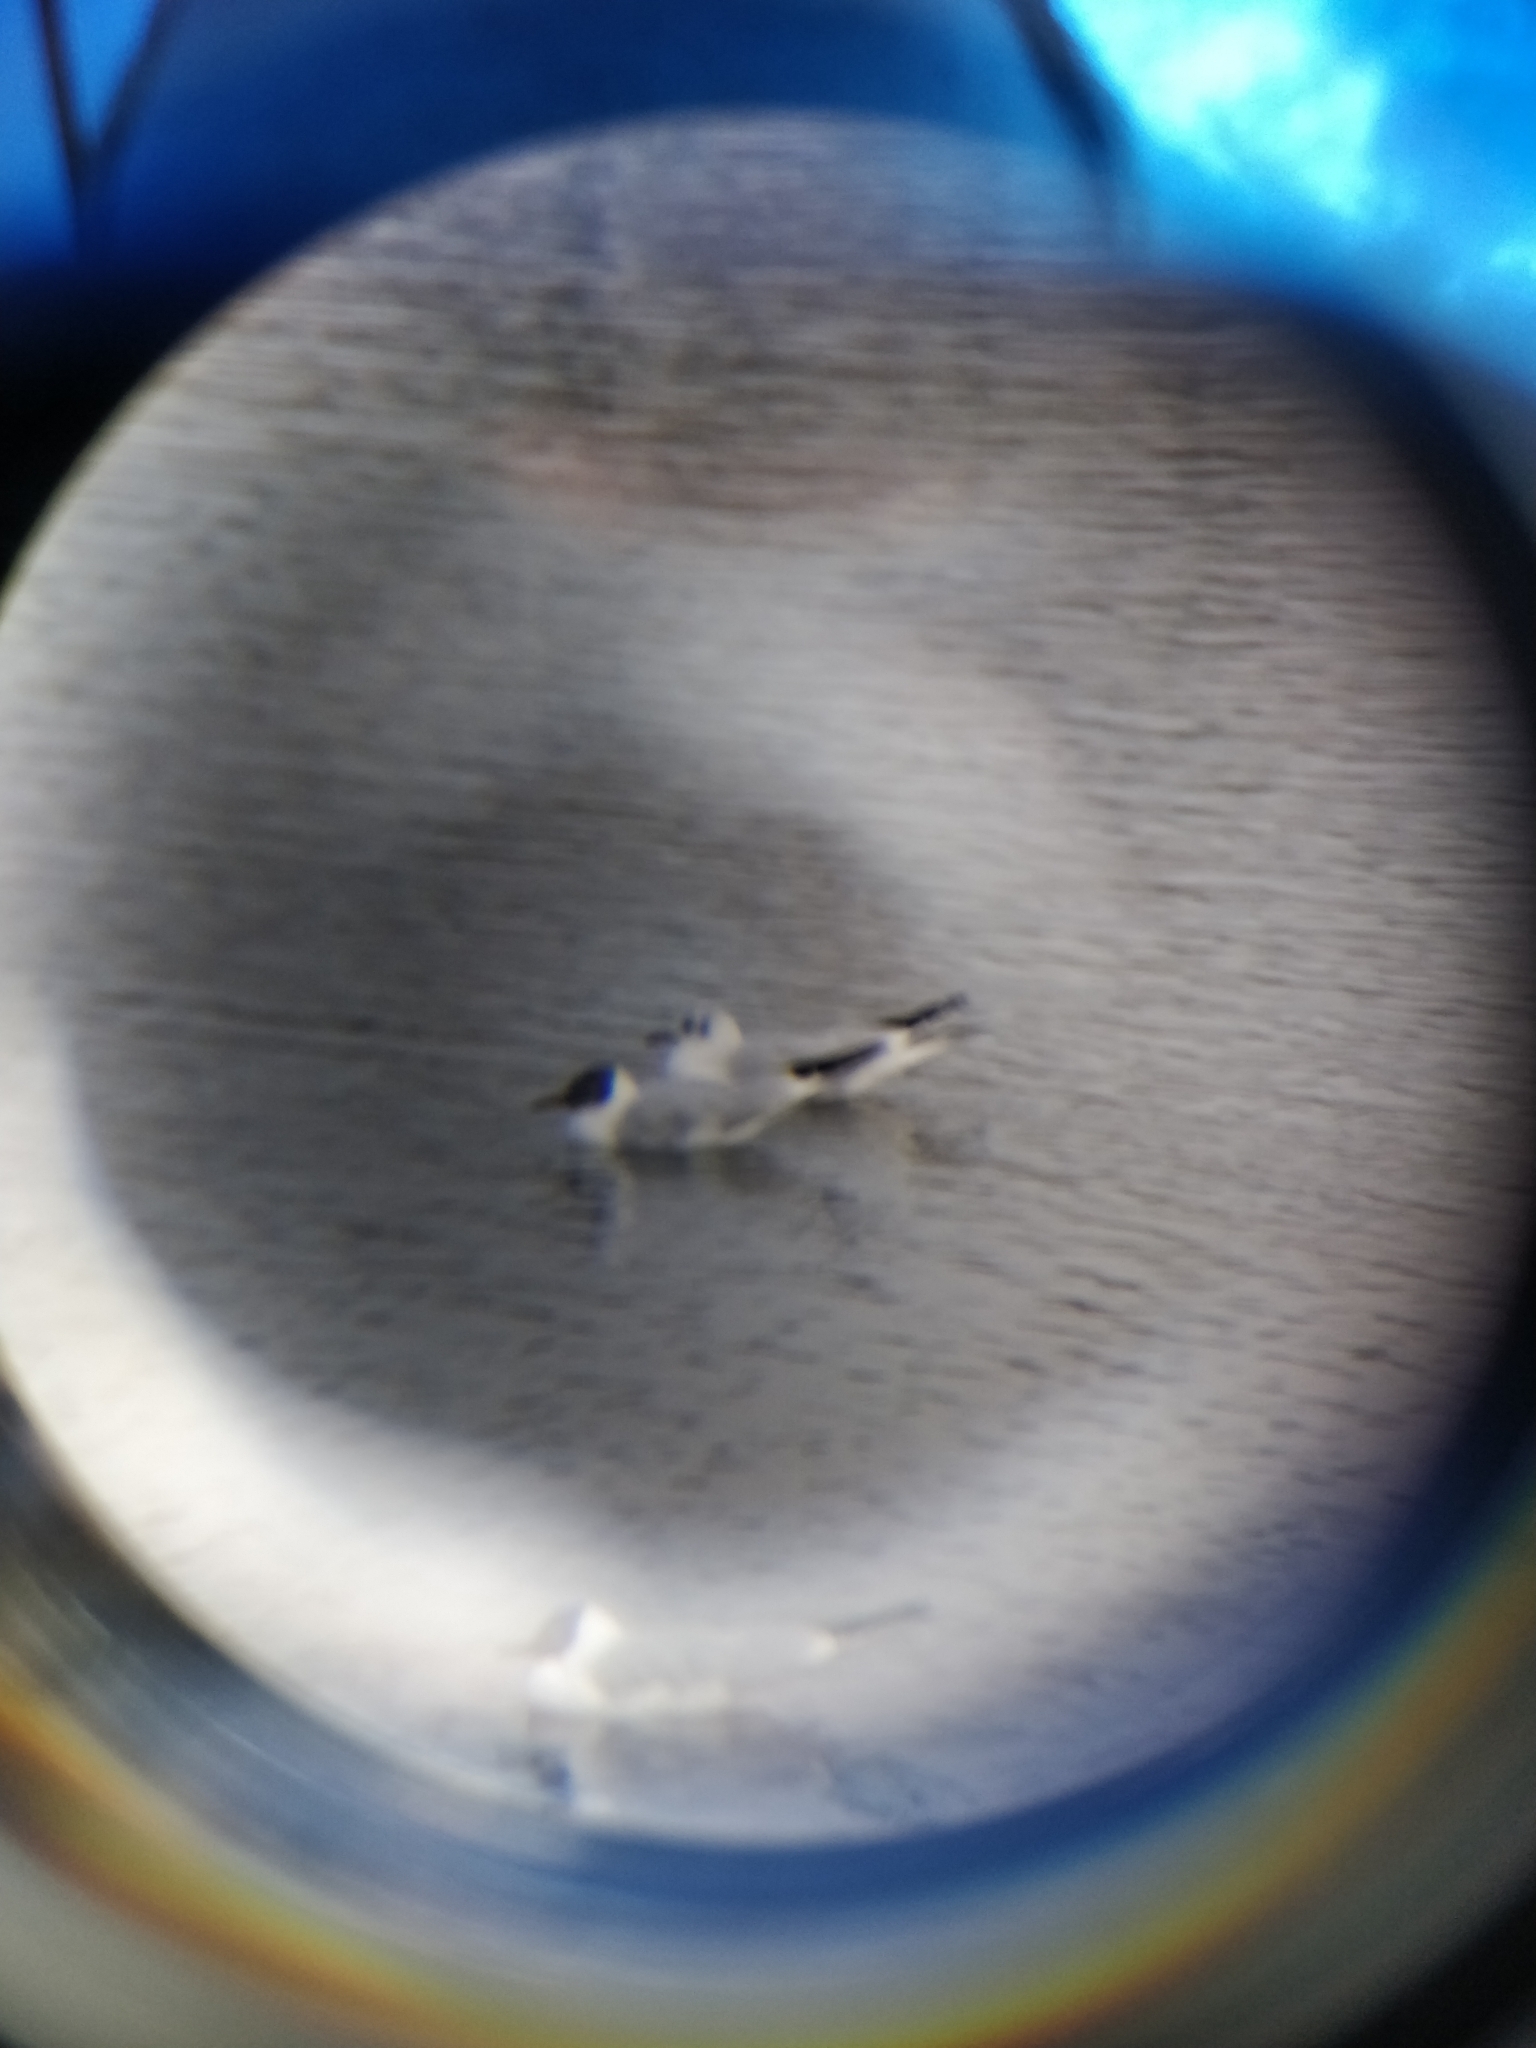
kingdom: Animalia
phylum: Chordata
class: Aves
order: Charadriiformes
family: Laridae
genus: Chroicocephalus
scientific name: Chroicocephalus ridibundus
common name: Black-headed gull
